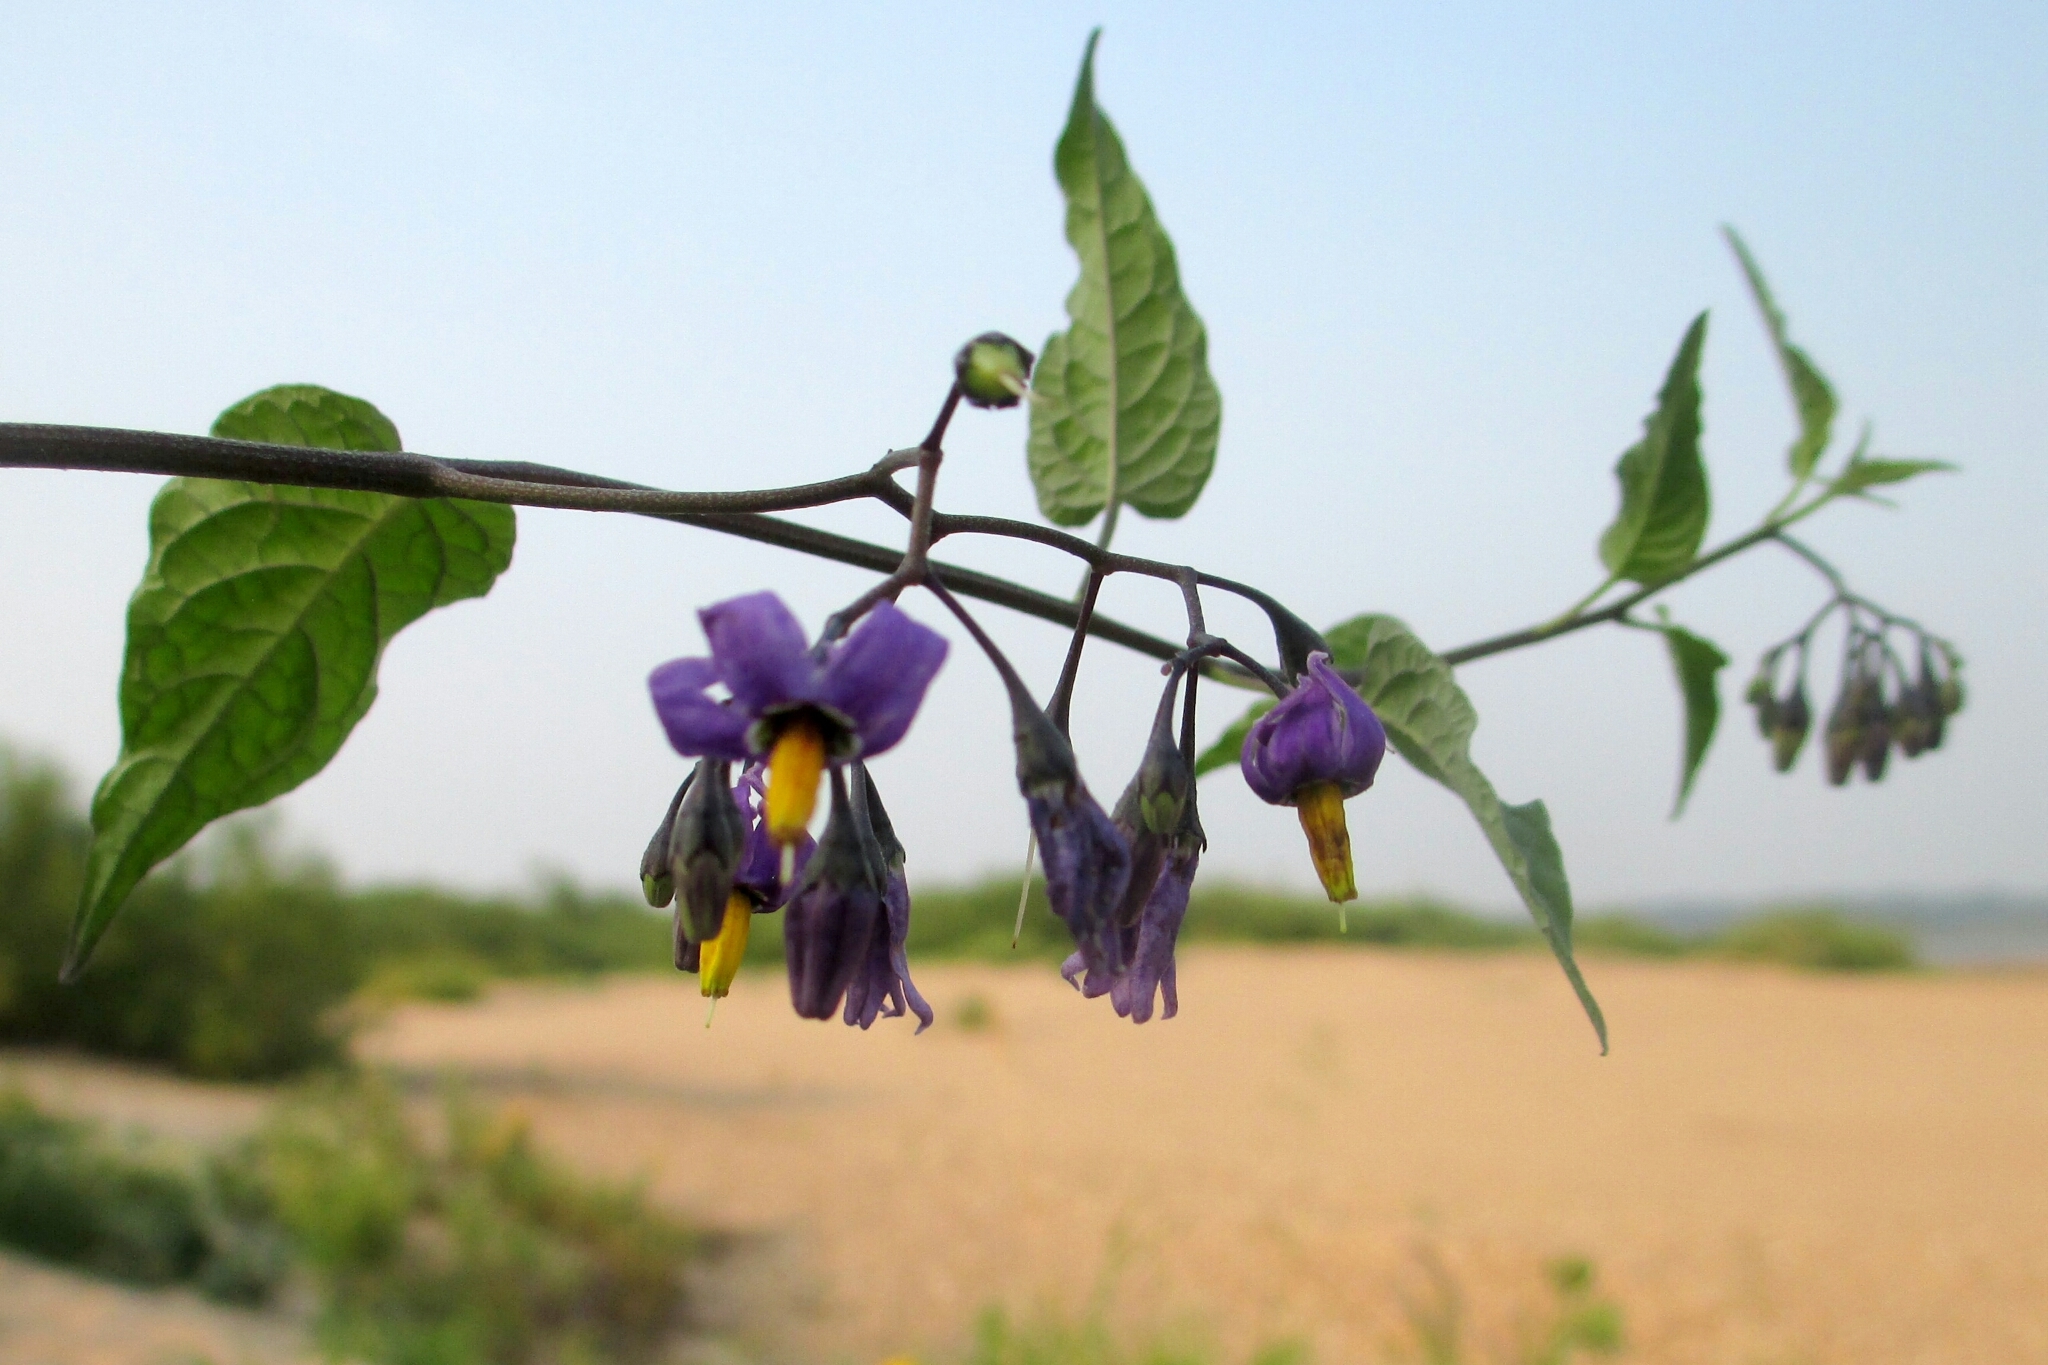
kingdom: Plantae
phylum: Tracheophyta
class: Magnoliopsida
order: Solanales
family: Solanaceae
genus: Solanum
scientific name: Solanum dulcamara
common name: Climbing nightshade
